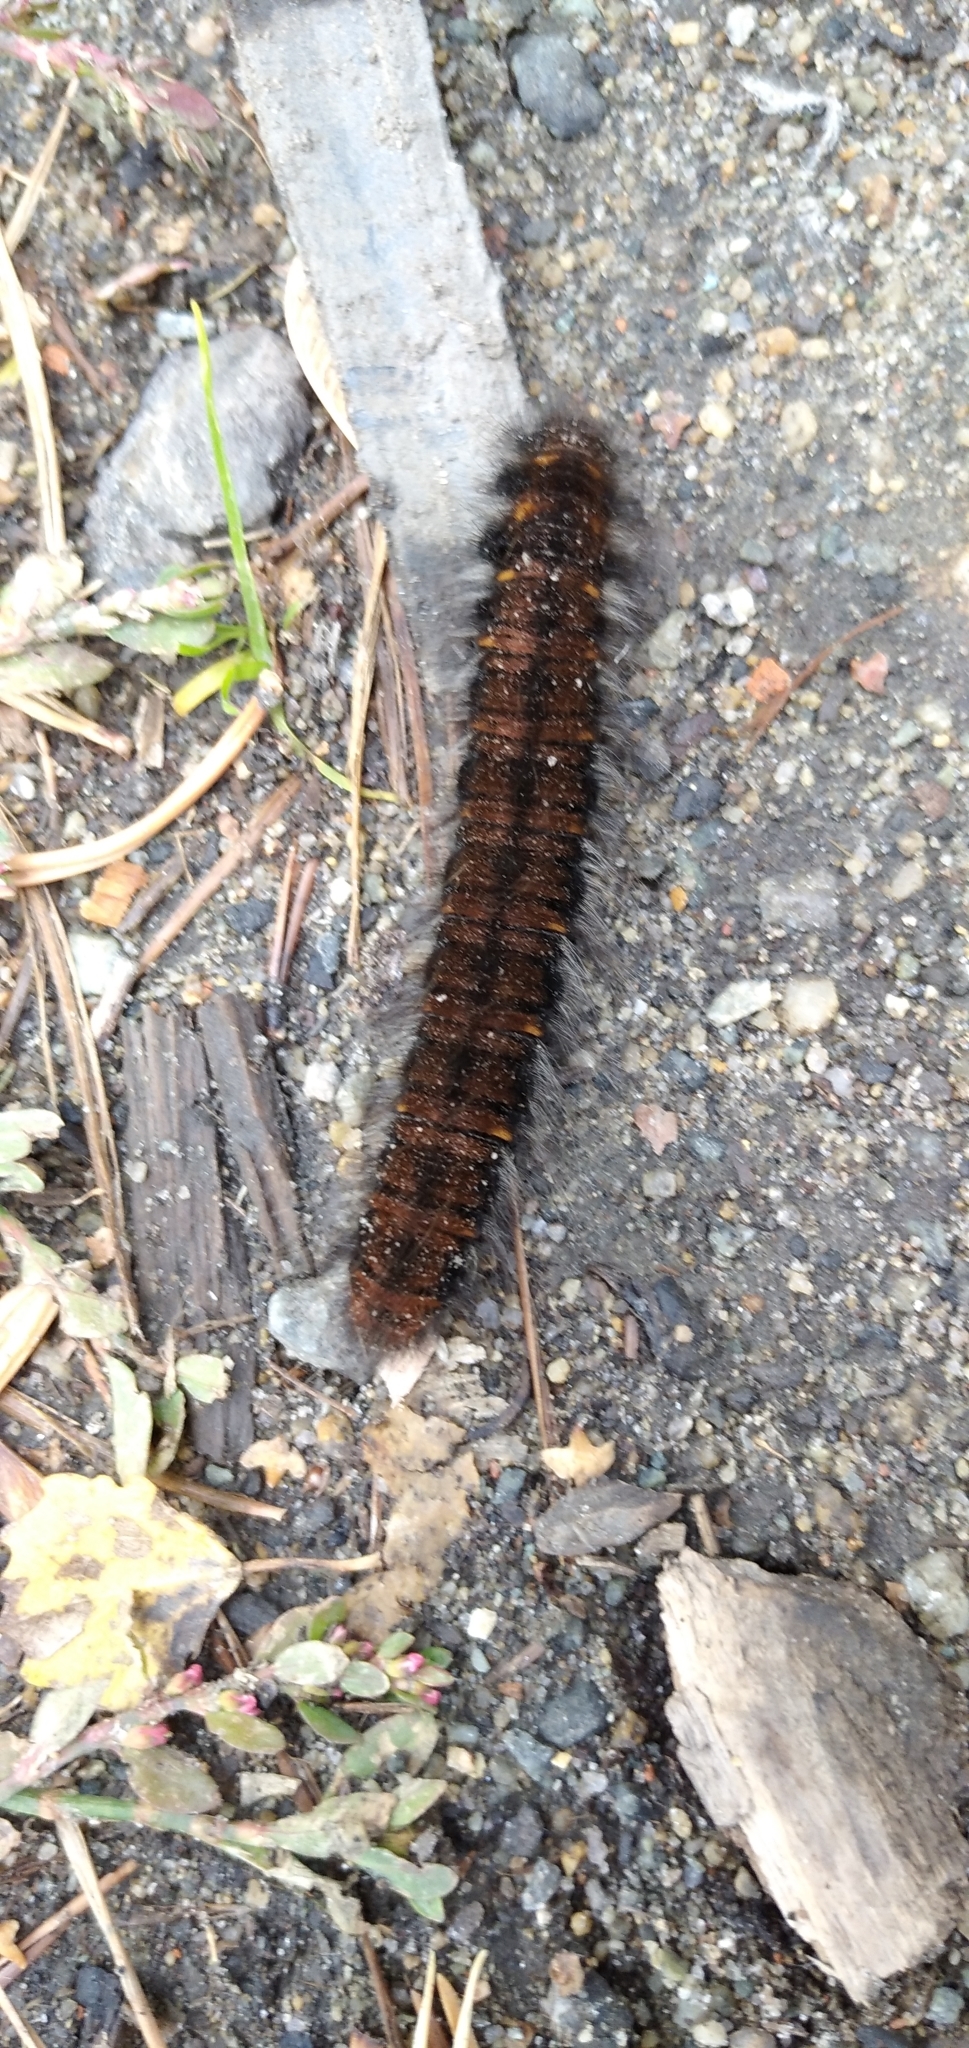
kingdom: Animalia
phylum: Arthropoda
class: Insecta
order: Lepidoptera
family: Lasiocampidae
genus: Macrothylacia
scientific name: Macrothylacia rubi
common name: Fox moth
